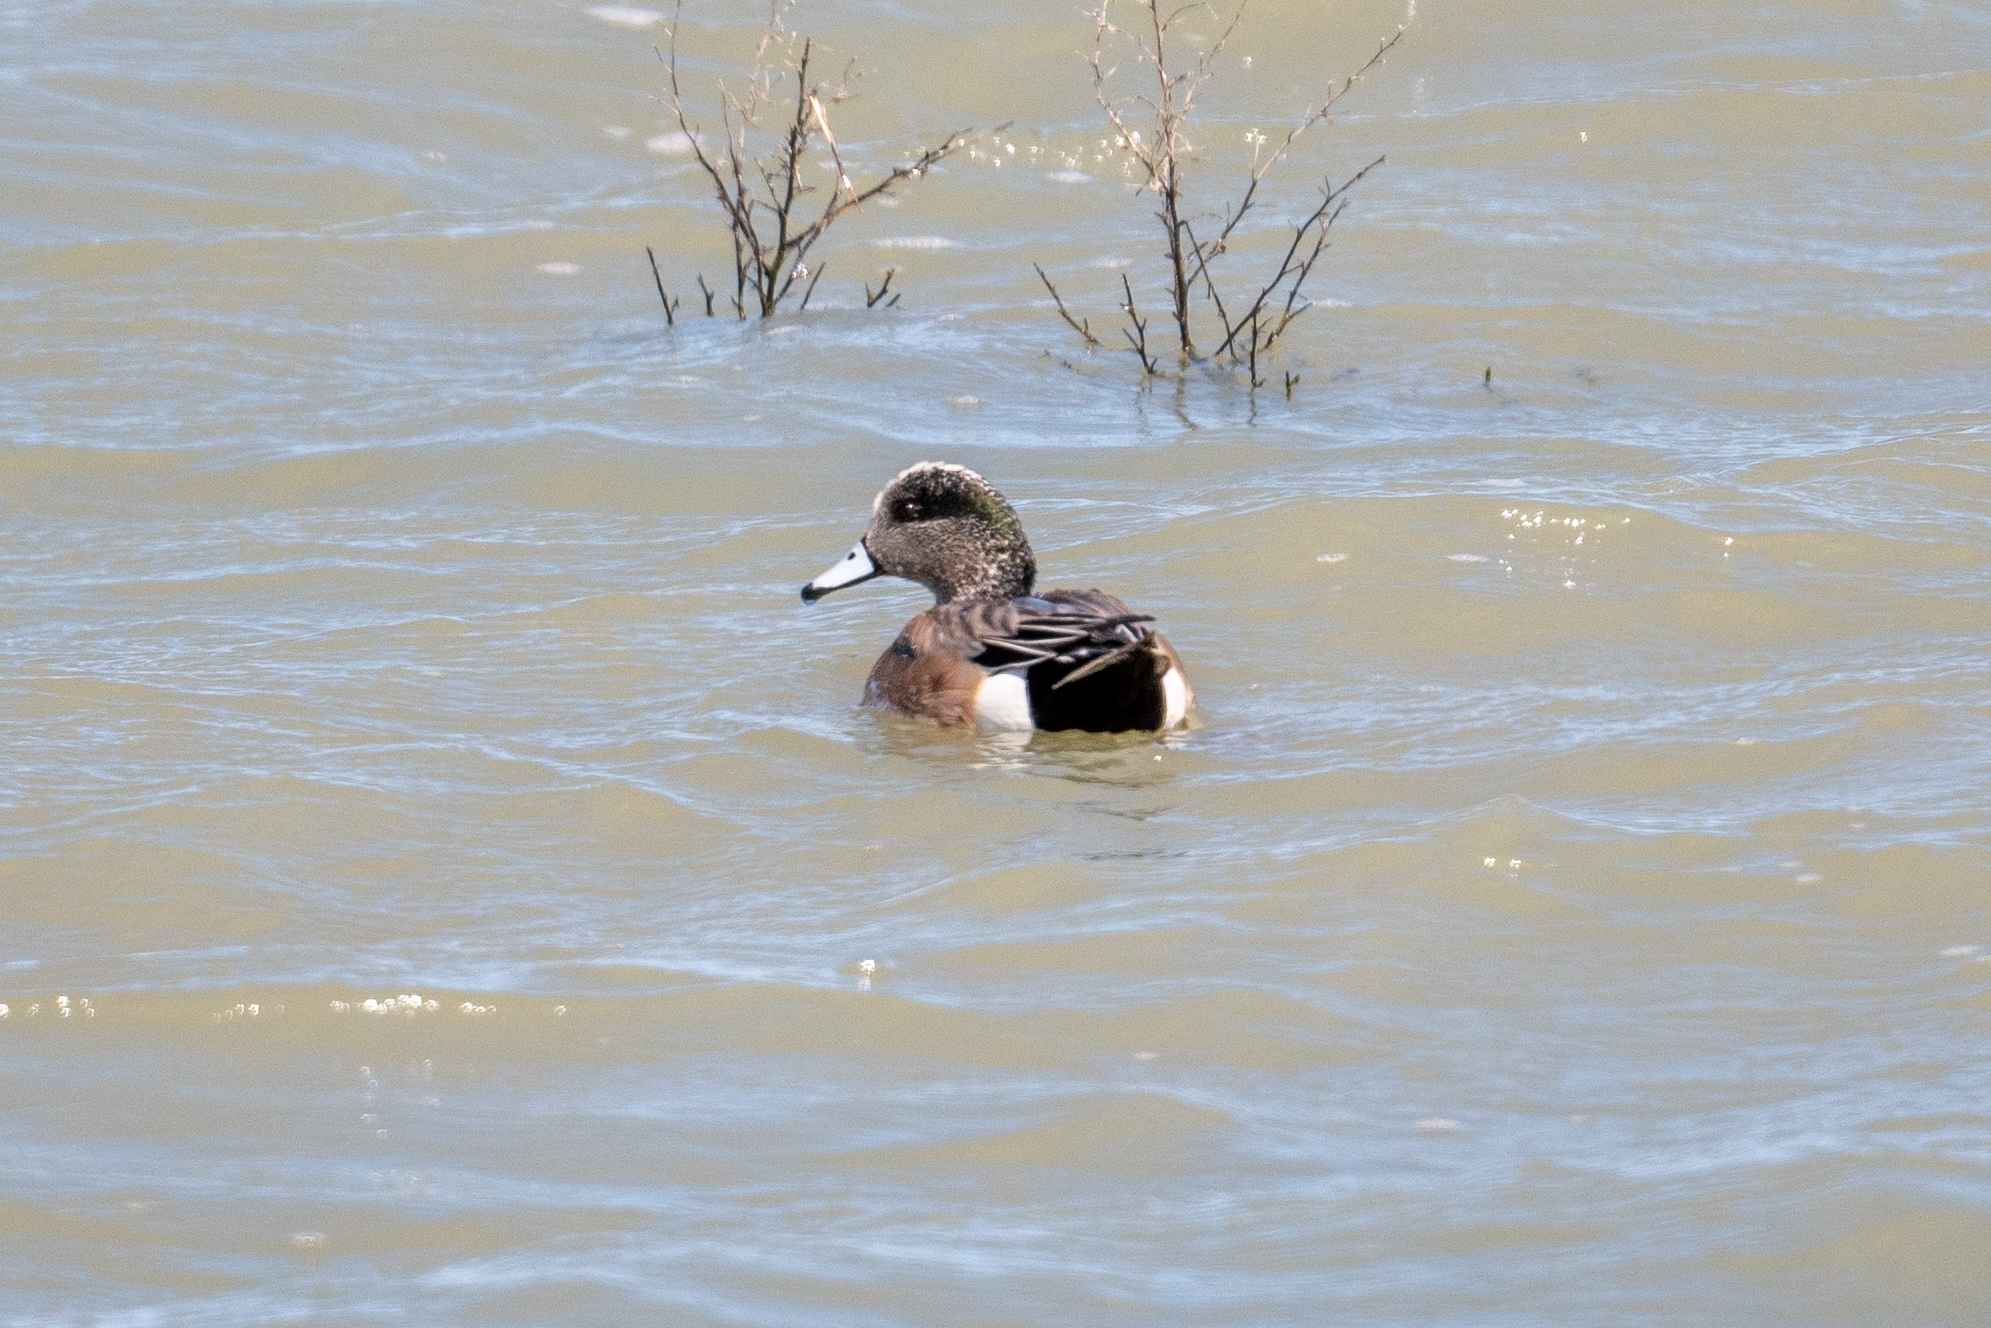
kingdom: Animalia
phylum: Chordata
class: Aves
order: Anseriformes
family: Anatidae
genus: Mareca
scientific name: Mareca americana
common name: American wigeon
